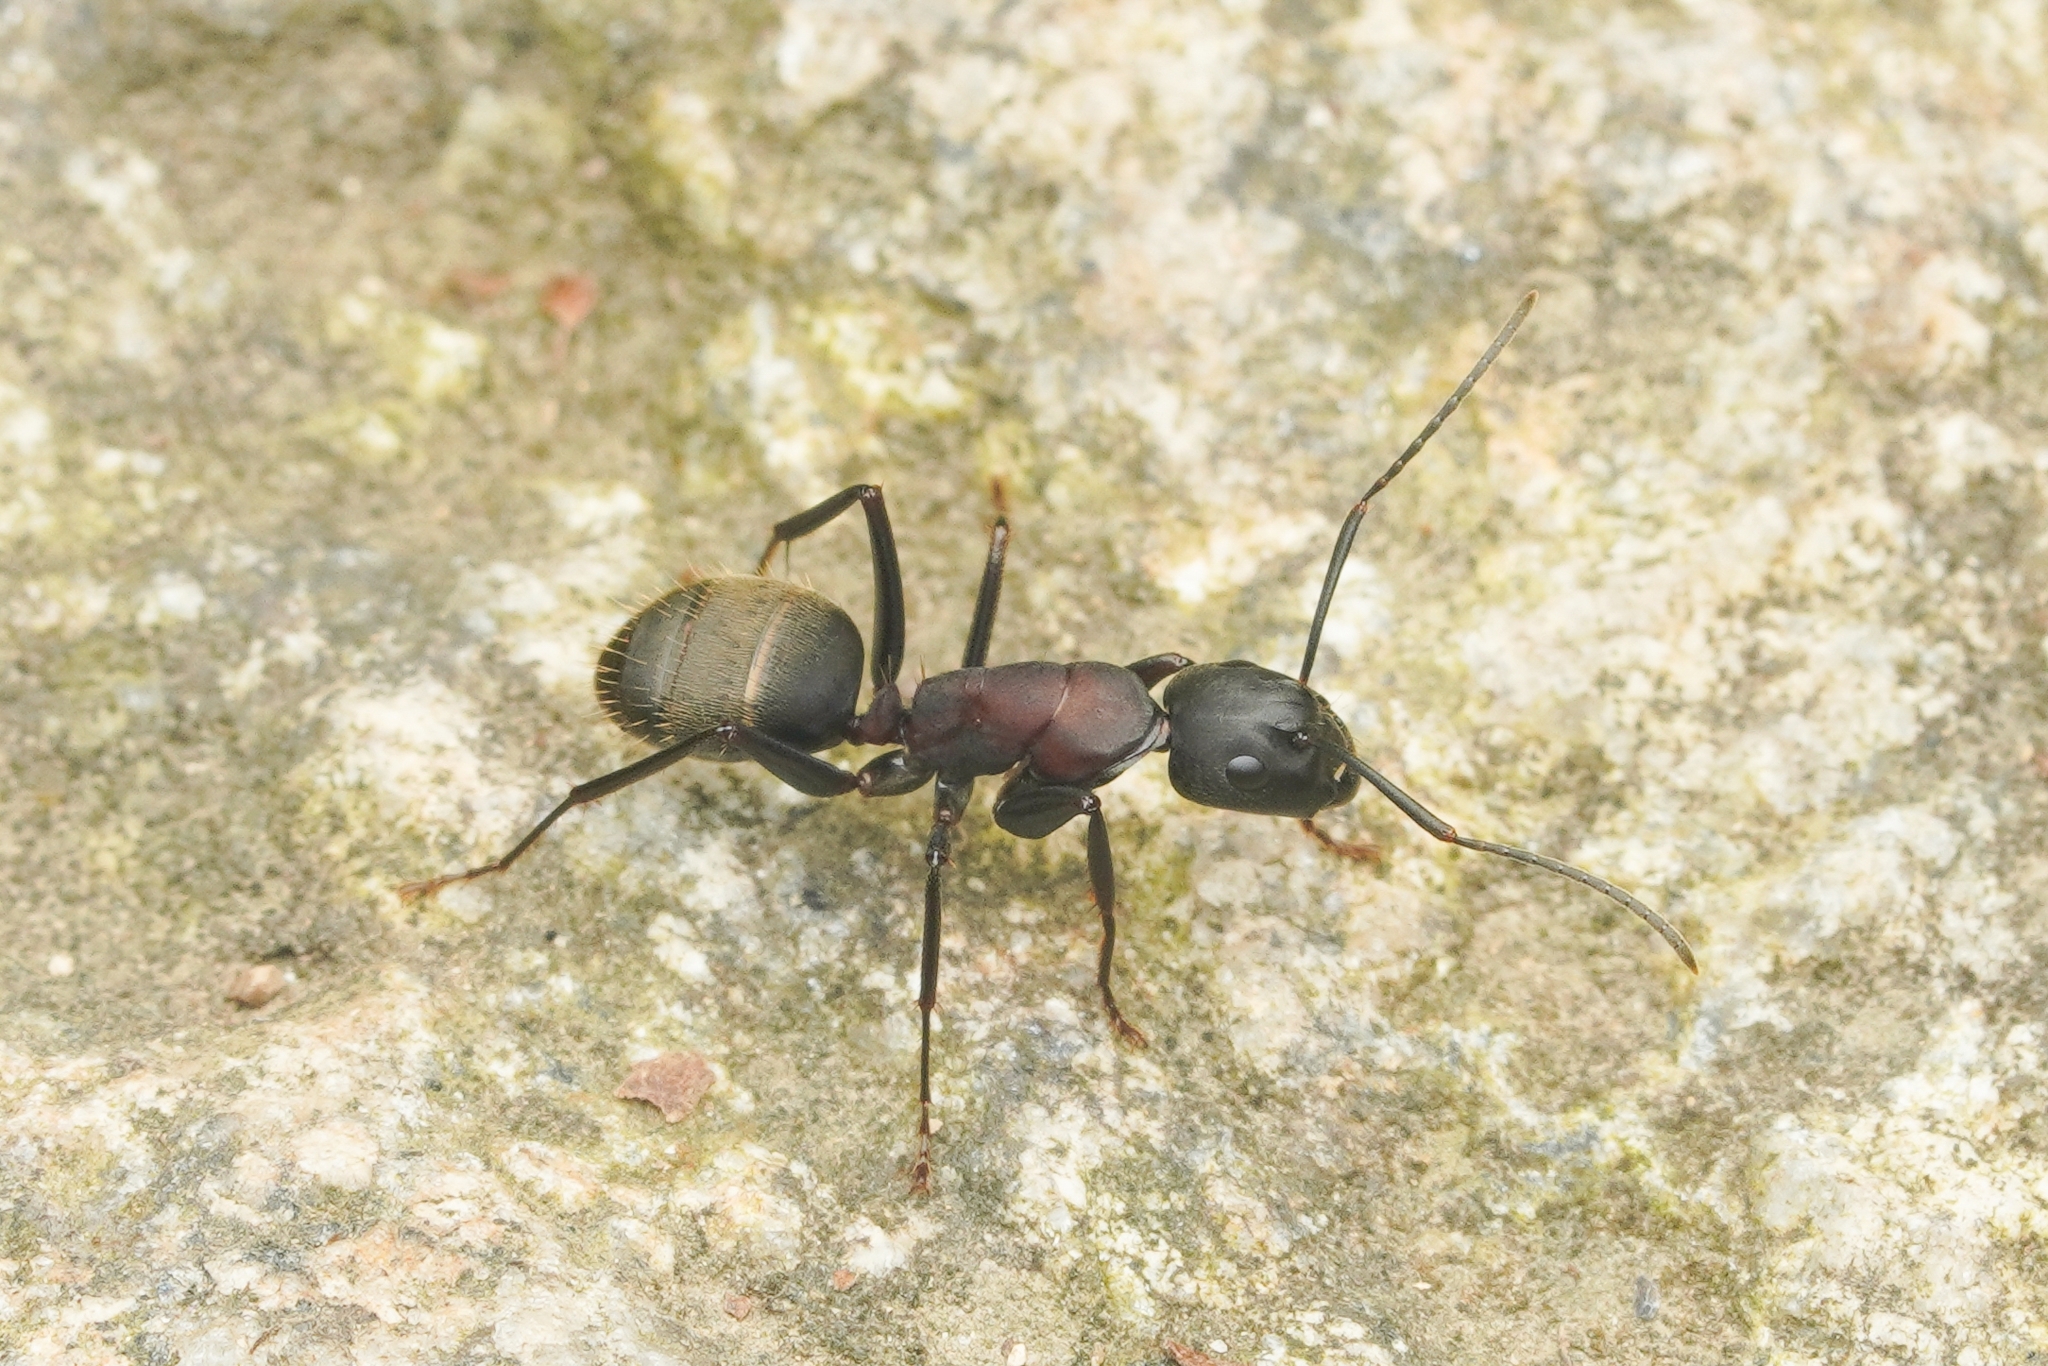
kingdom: Animalia
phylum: Arthropoda
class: Insecta
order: Hymenoptera
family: Formicidae
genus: Camponotus
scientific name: Camponotus atrox
